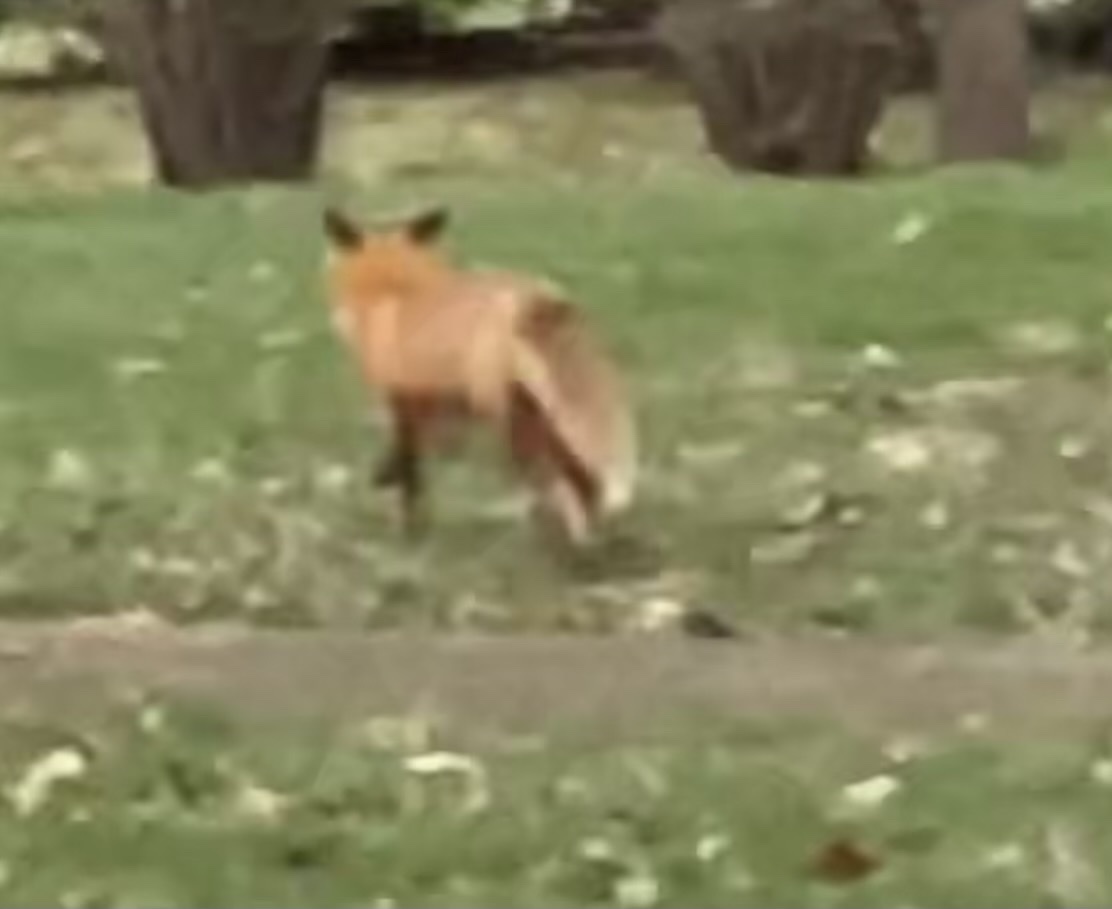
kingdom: Animalia
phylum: Chordata
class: Mammalia
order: Carnivora
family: Canidae
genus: Vulpes
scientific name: Vulpes vulpes
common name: Red fox
